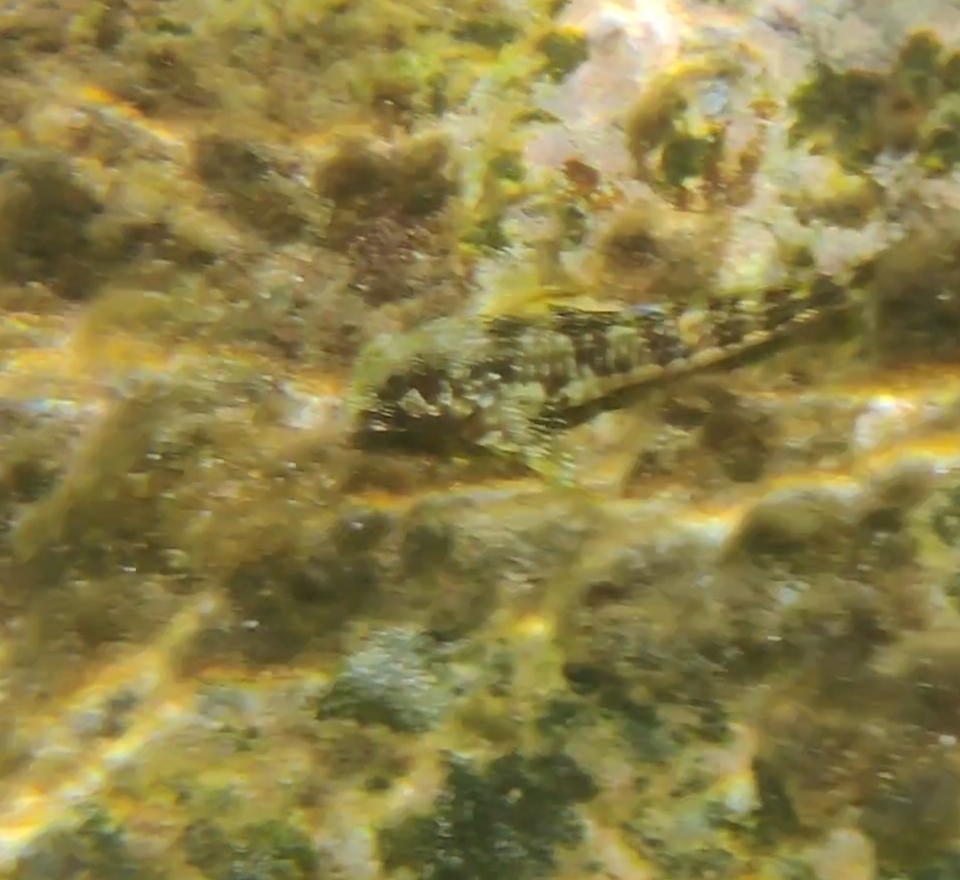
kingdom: Animalia
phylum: Chordata
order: Perciformes
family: Blenniidae
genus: Scartella
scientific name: Scartella cristata
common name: Molly miller
